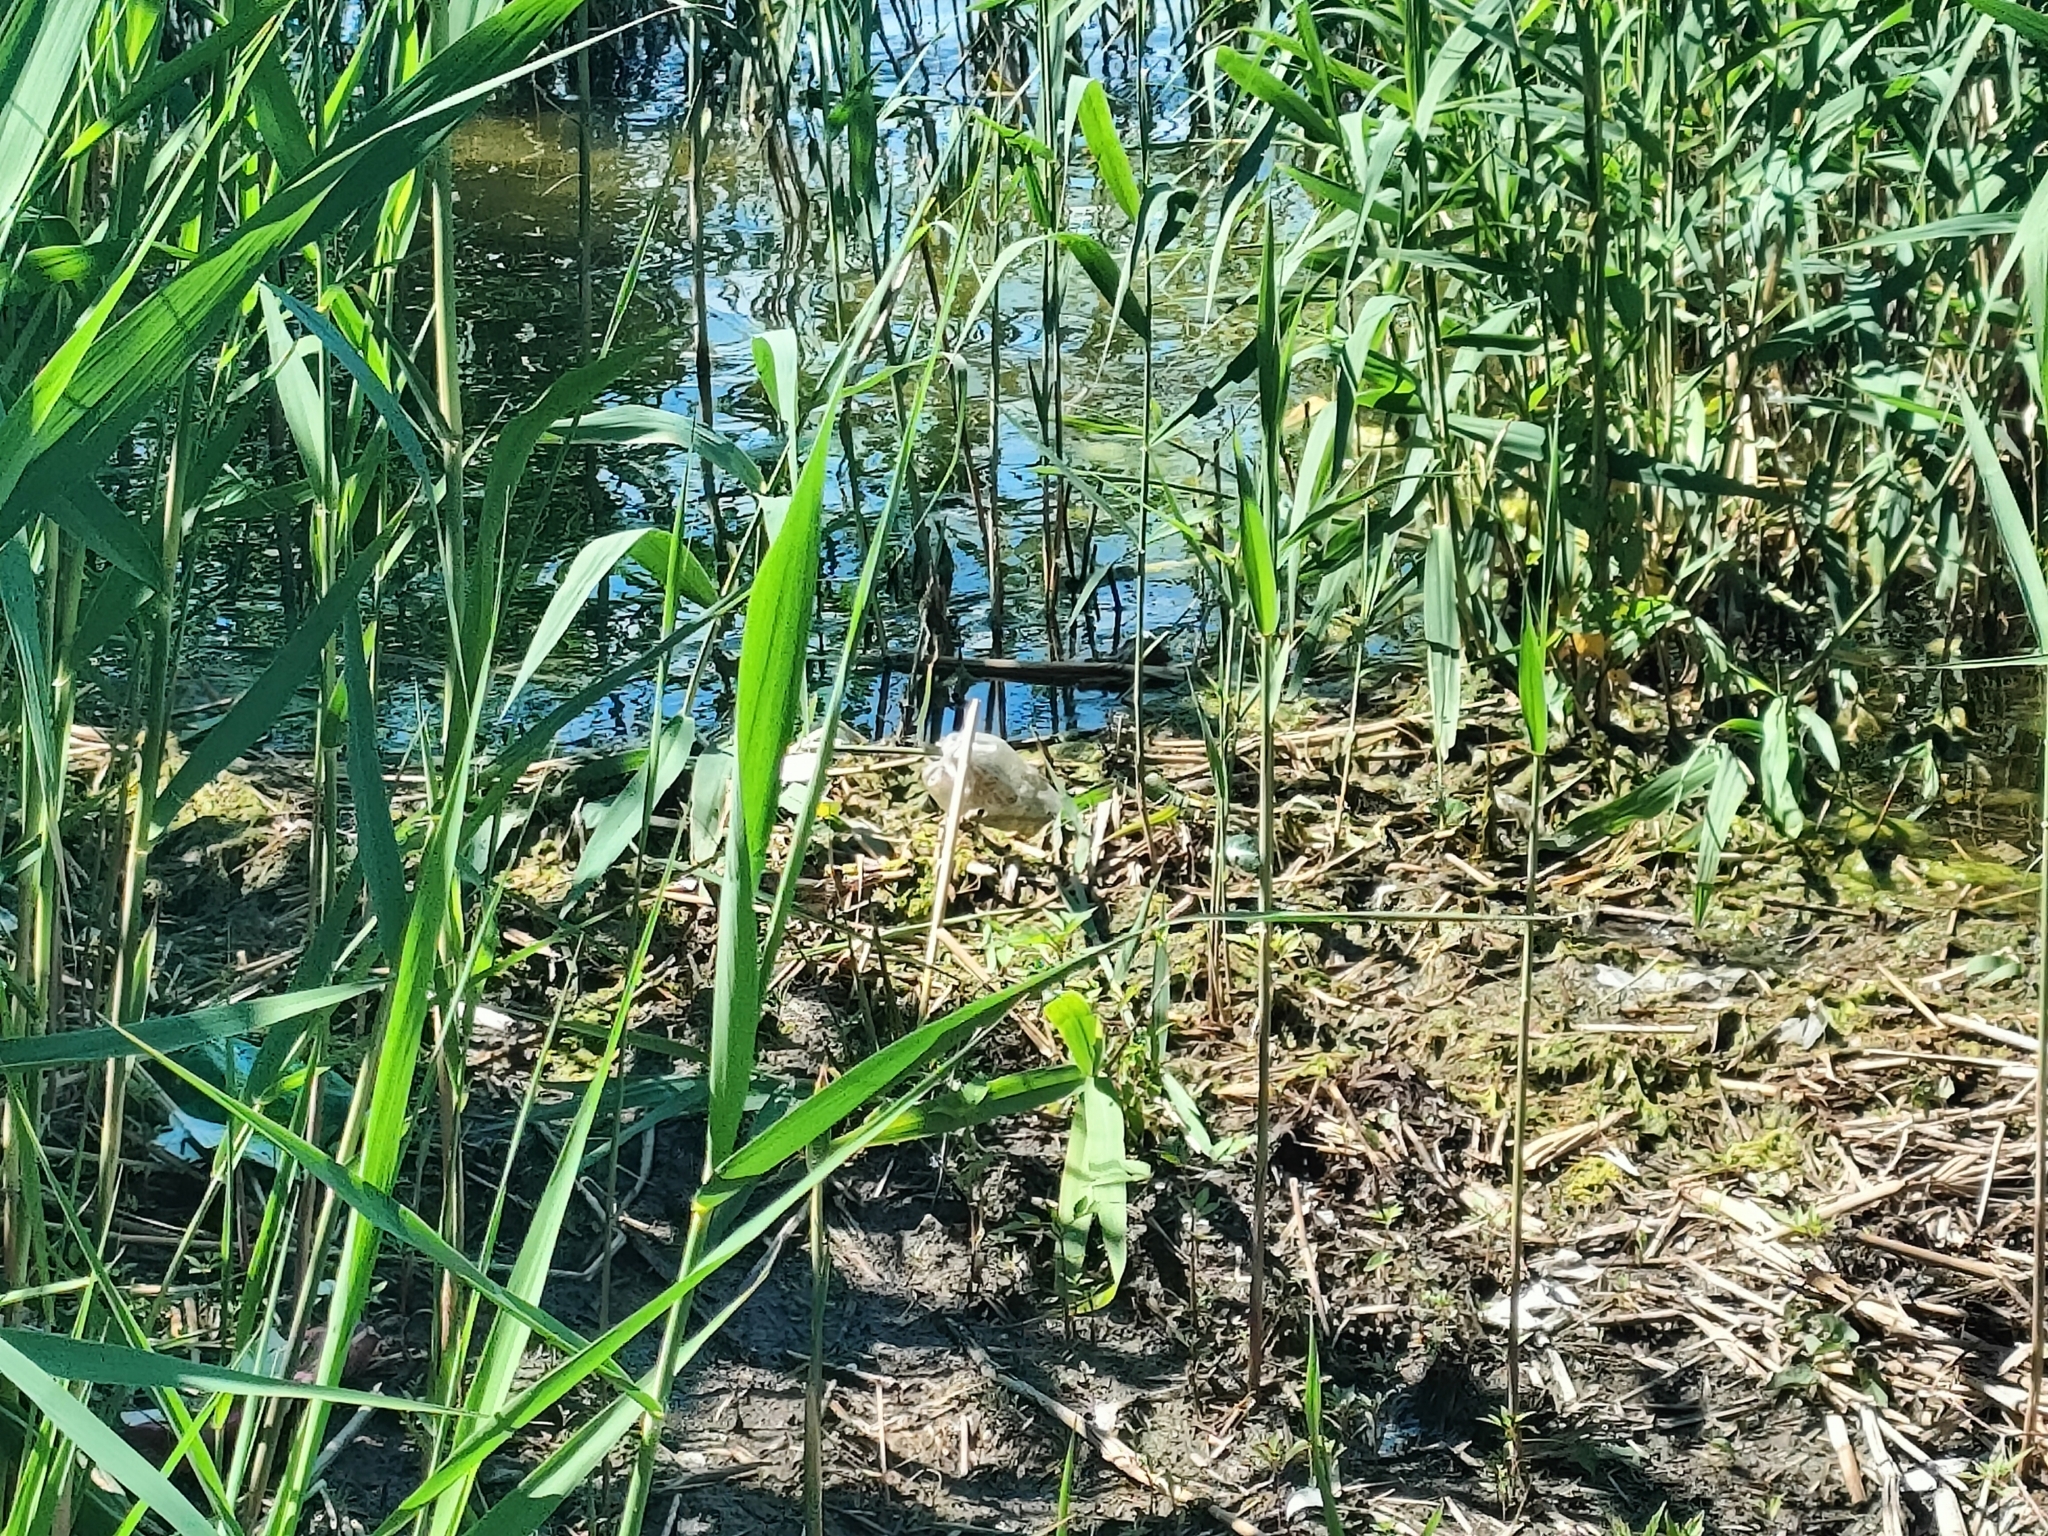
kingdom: Animalia
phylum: Chordata
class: Aves
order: Passeriformes
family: Muscicapidae
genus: Luscinia
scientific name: Luscinia svecica
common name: Bluethroat
